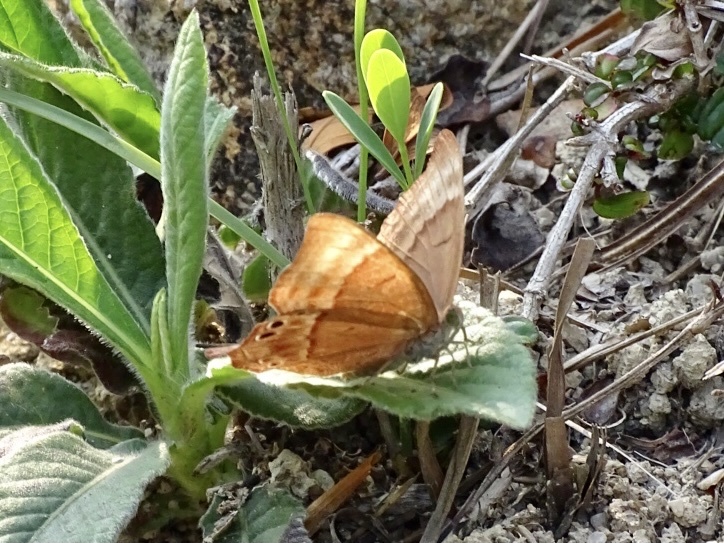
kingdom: Animalia
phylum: Arthropoda
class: Insecta
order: Lepidoptera
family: Lycaenidae
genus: Abisara
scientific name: Abisara echeria
